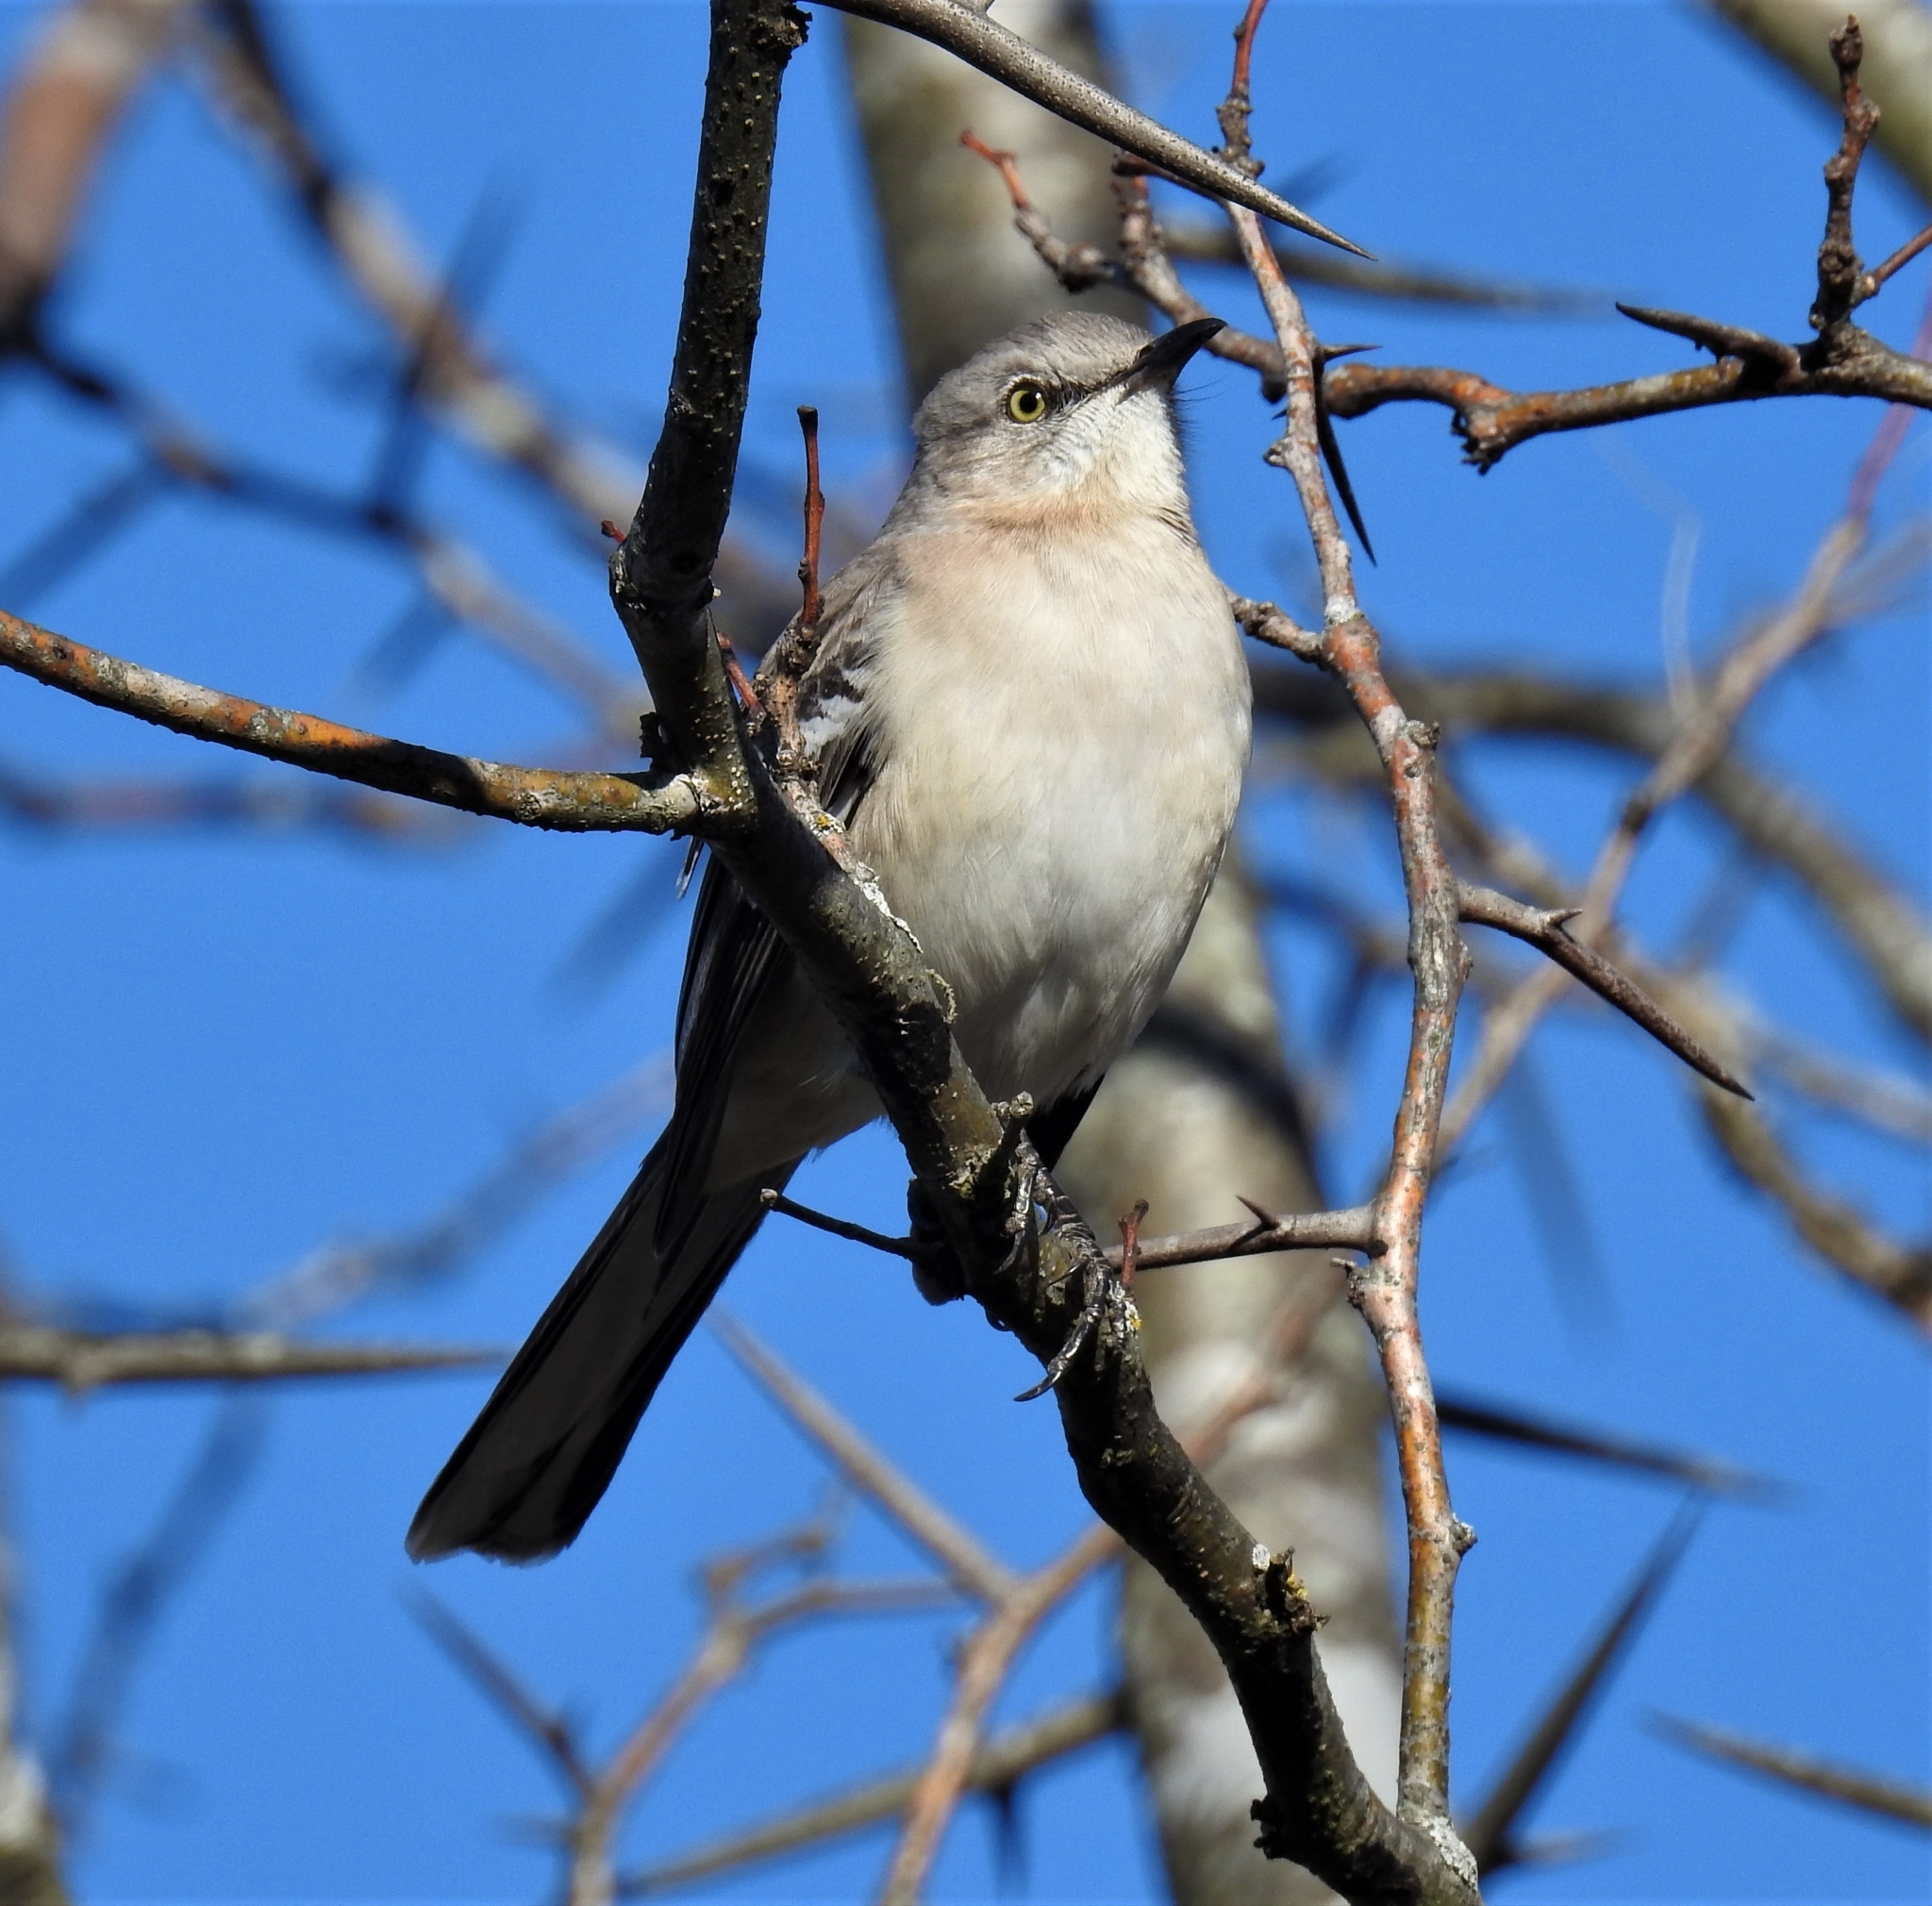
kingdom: Animalia
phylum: Chordata
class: Aves
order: Passeriformes
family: Mimidae
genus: Mimus
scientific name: Mimus polyglottos
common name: Northern mockingbird
